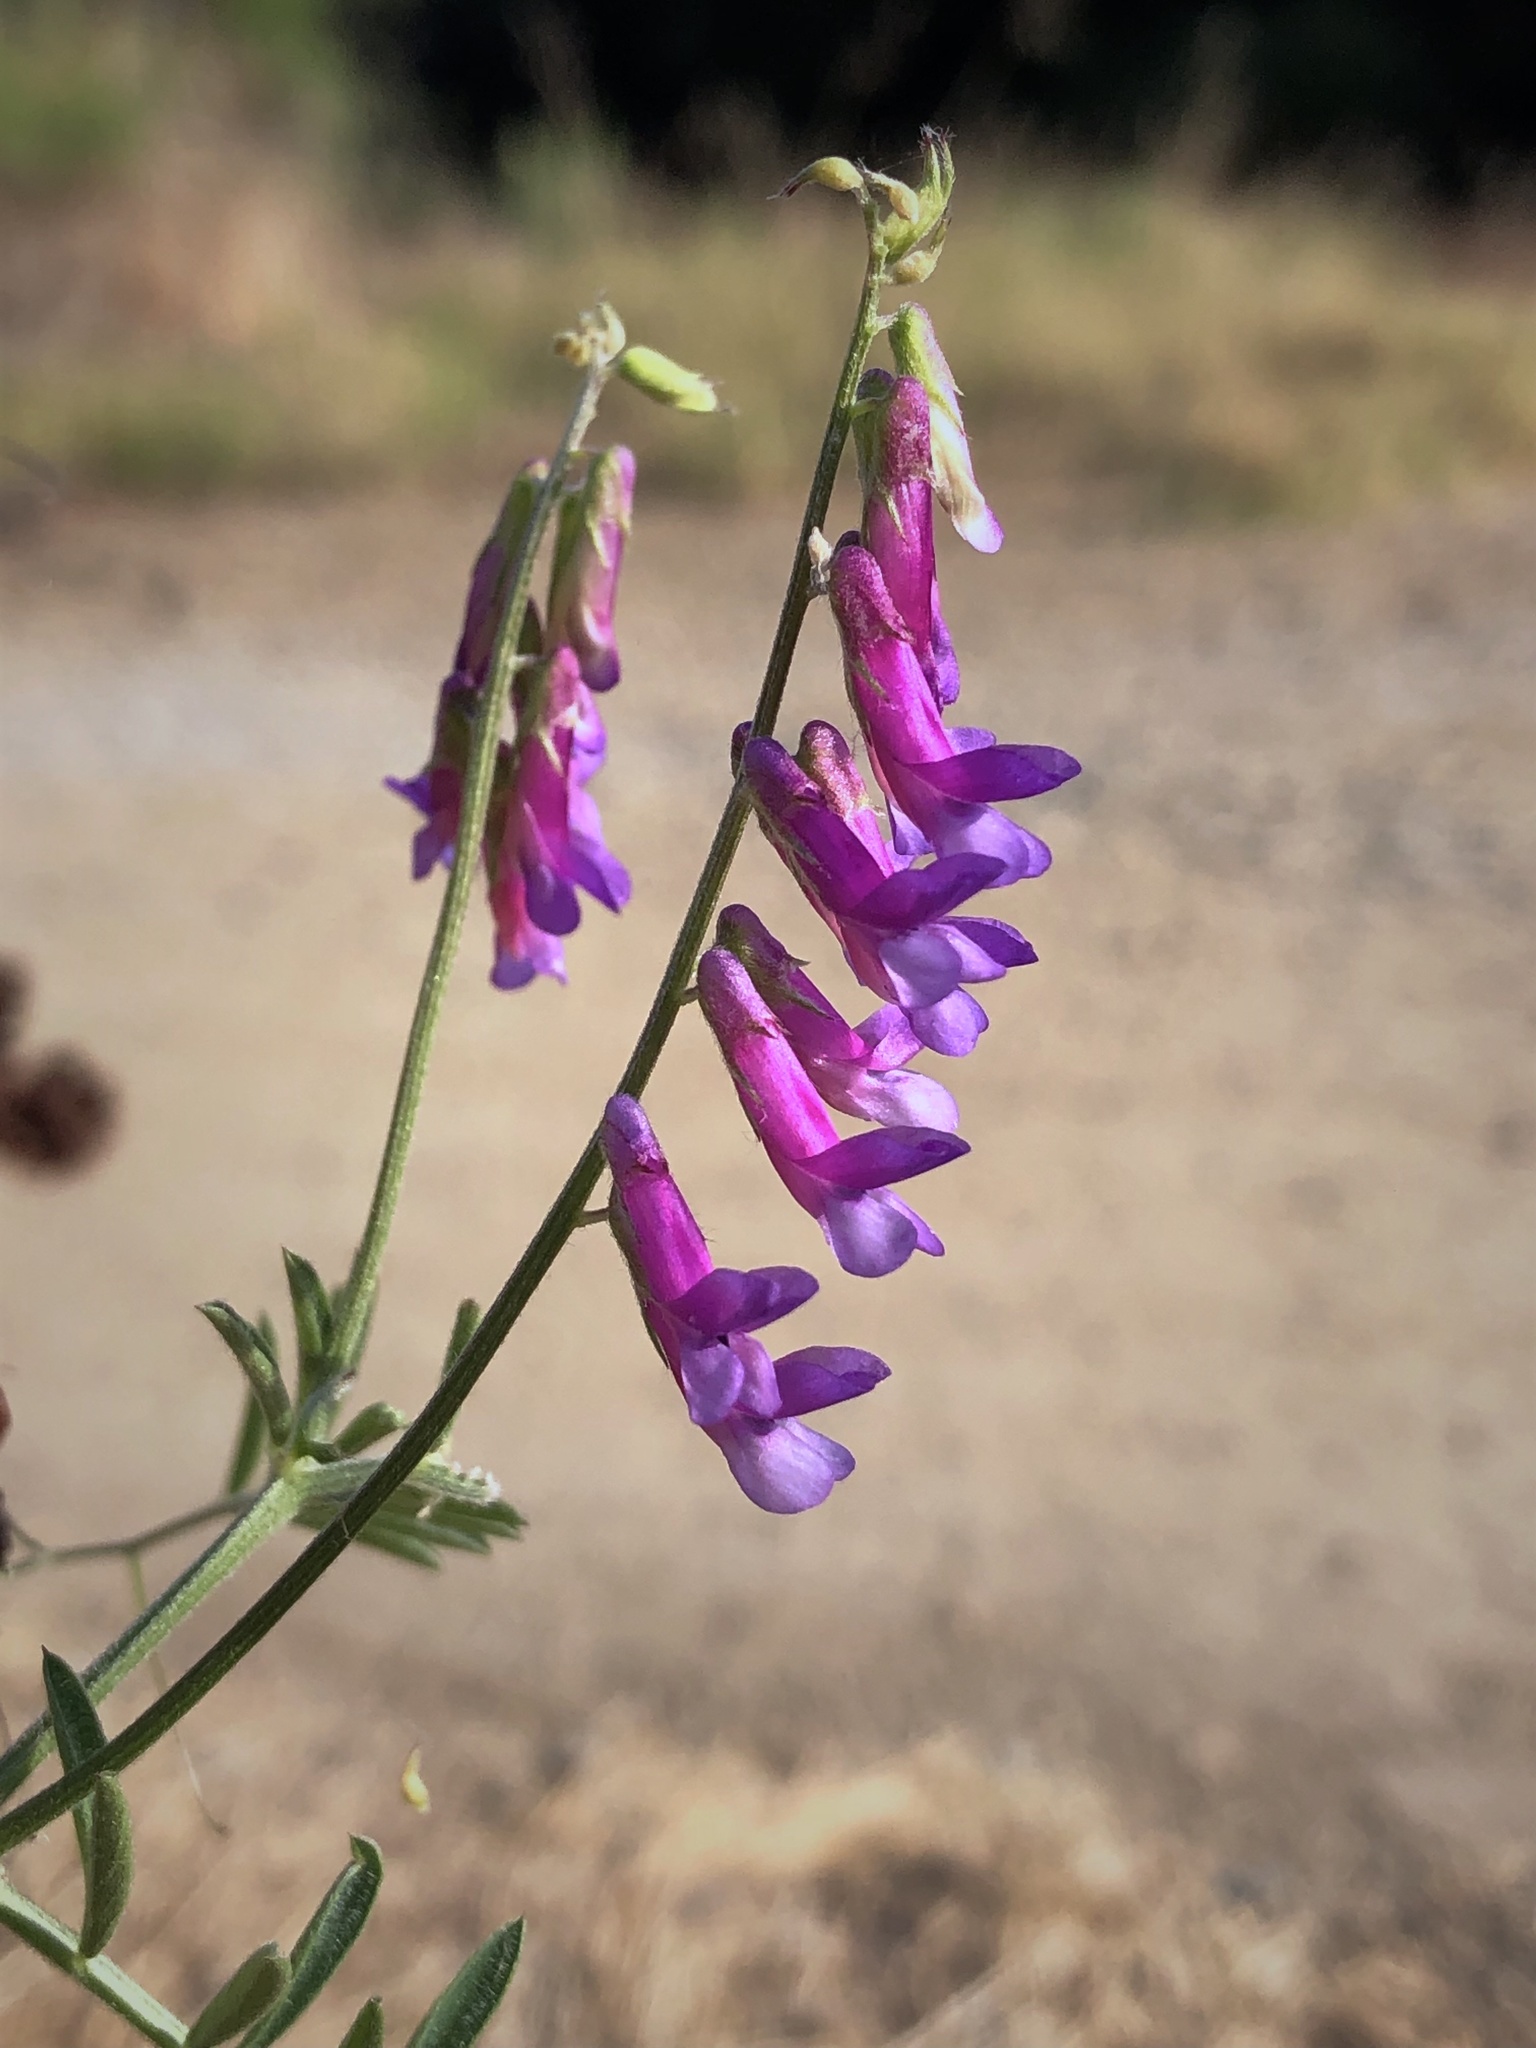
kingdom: Plantae
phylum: Tracheophyta
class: Magnoliopsida
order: Fabales
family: Fabaceae
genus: Vicia
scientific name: Vicia villosa
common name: Fodder vetch
